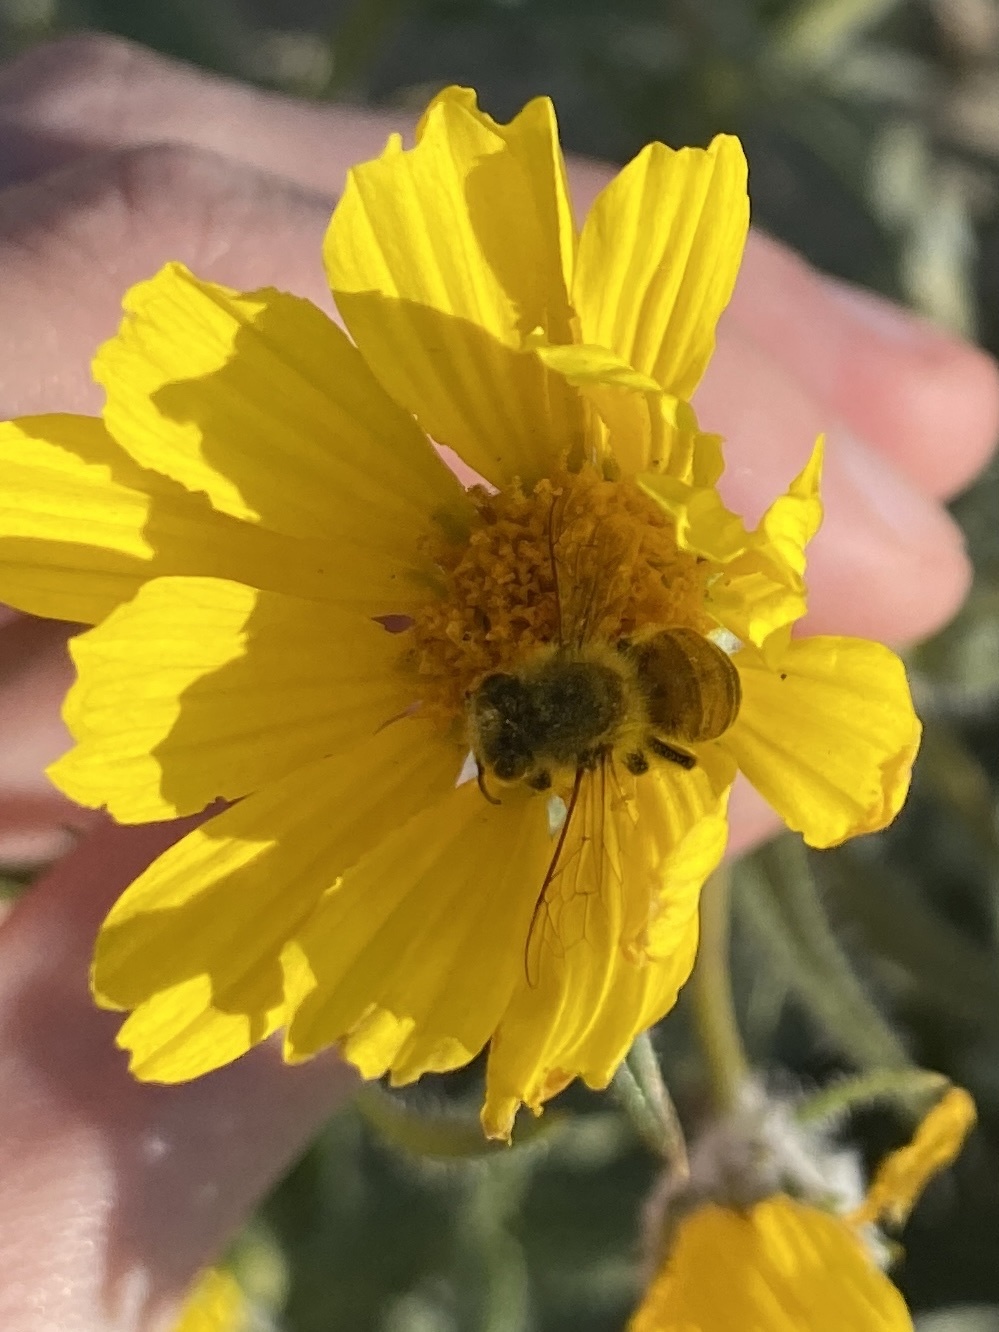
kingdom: Animalia
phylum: Arthropoda
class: Insecta
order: Hymenoptera
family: Apidae
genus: Apis
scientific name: Apis mellifera
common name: Honey bee
